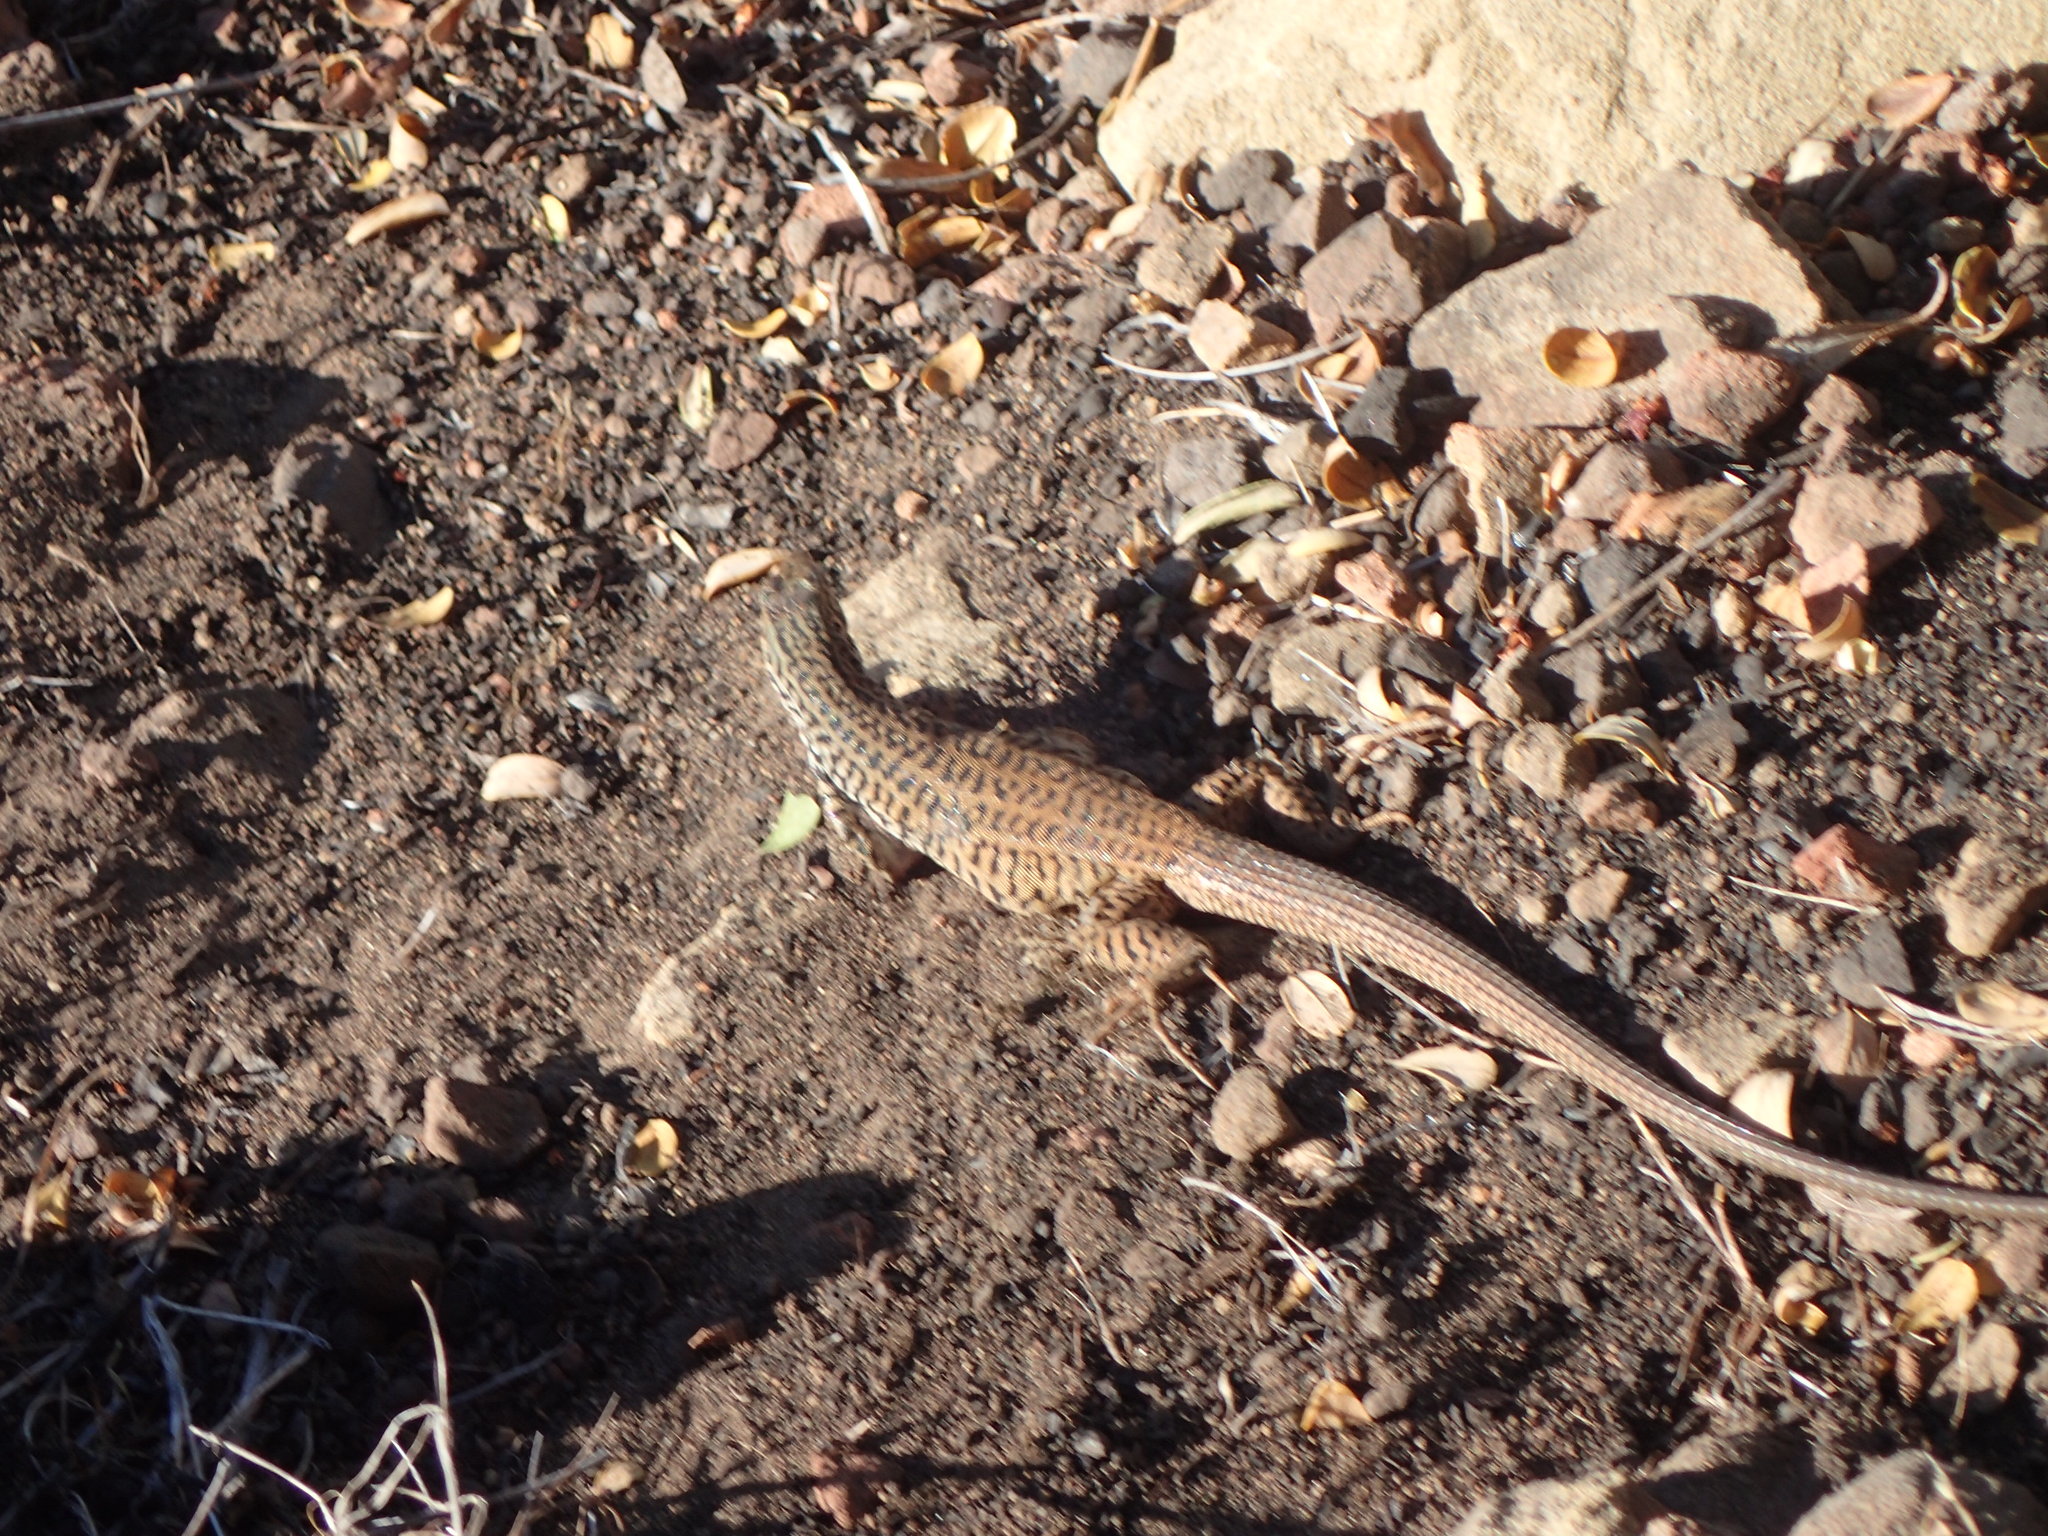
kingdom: Animalia
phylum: Chordata
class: Squamata
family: Teiidae
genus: Aspidoscelis
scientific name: Aspidoscelis tigris
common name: Tiger whiptail
